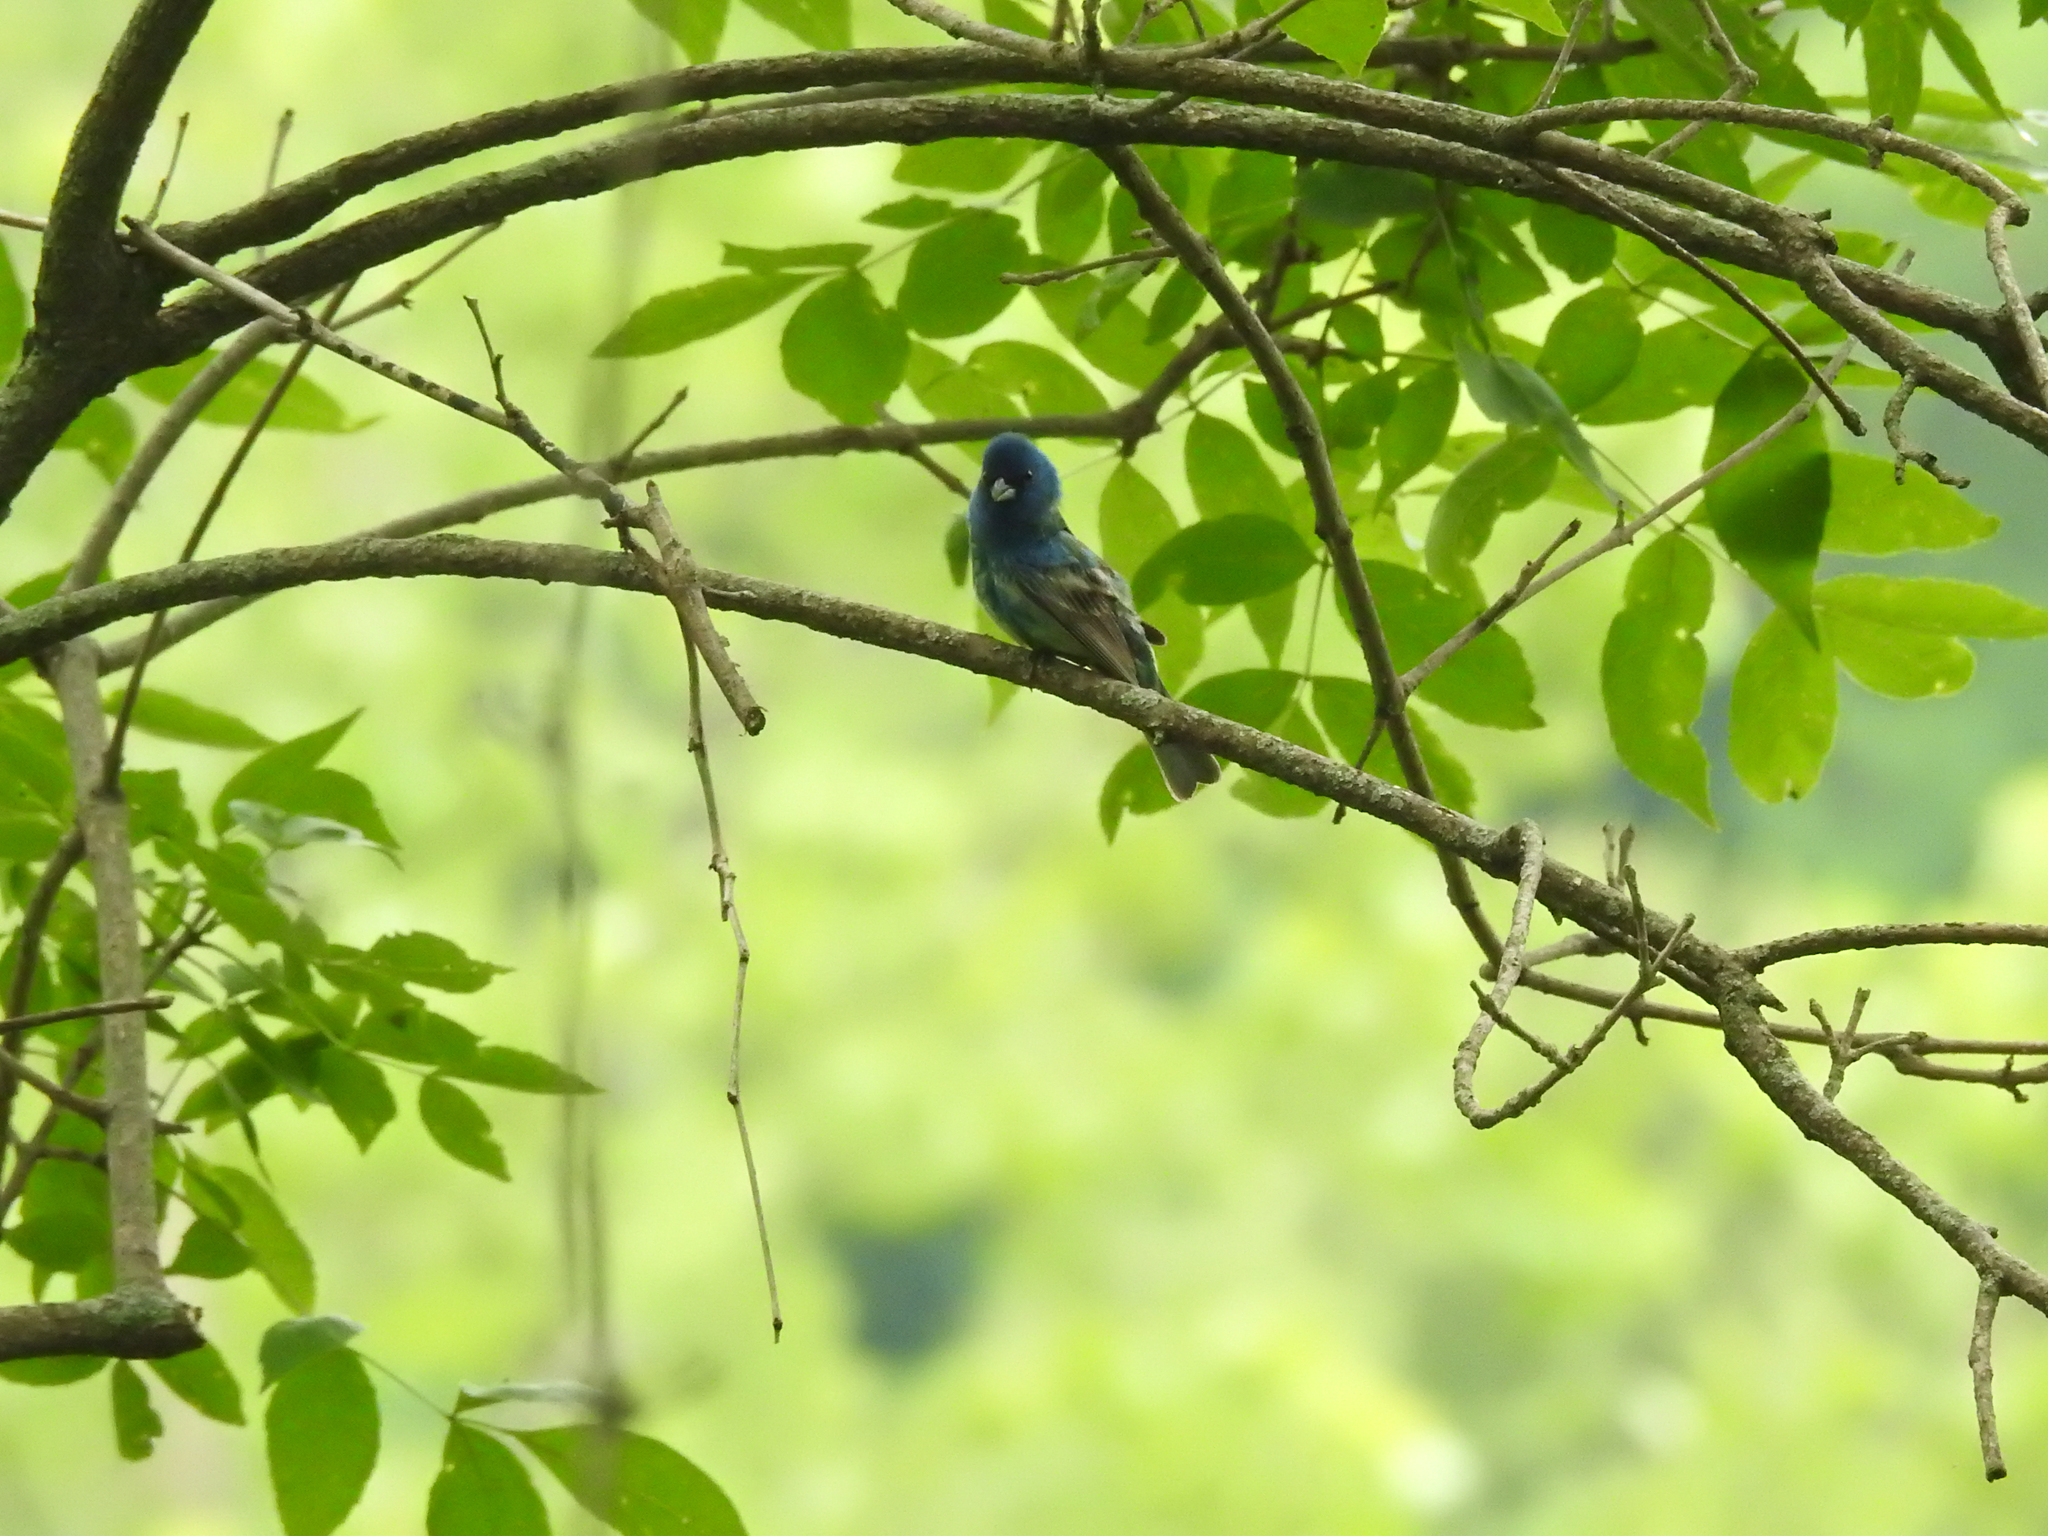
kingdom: Animalia
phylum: Chordata
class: Aves
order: Passeriformes
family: Cardinalidae
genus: Passerina
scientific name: Passerina
